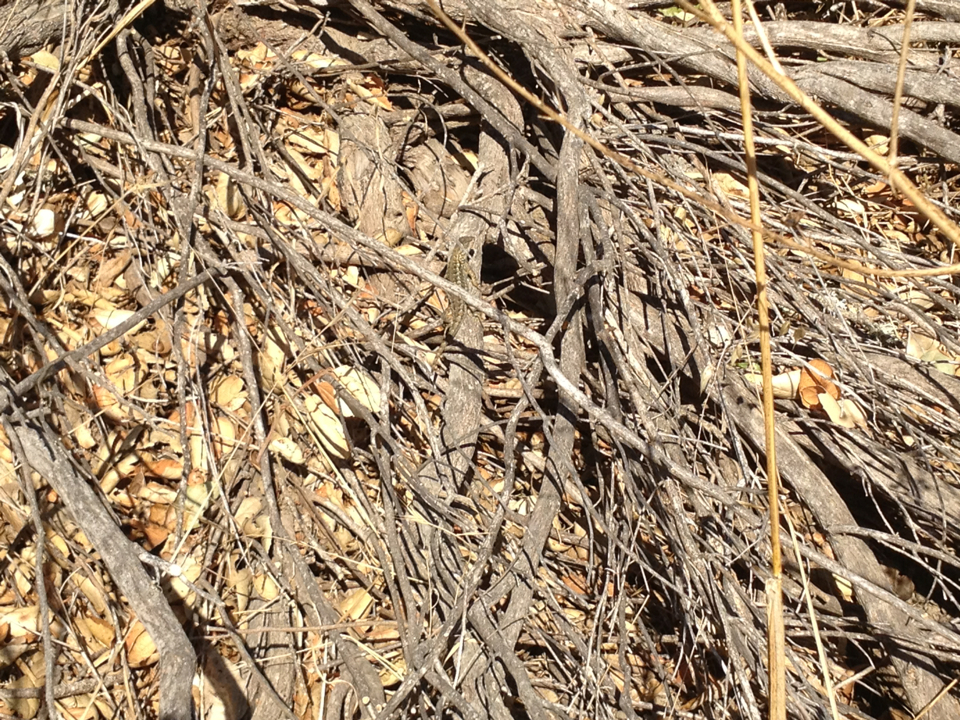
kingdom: Animalia
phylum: Chordata
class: Squamata
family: Phrynosomatidae
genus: Sceloporus
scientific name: Sceloporus occidentalis
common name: Western fence lizard
